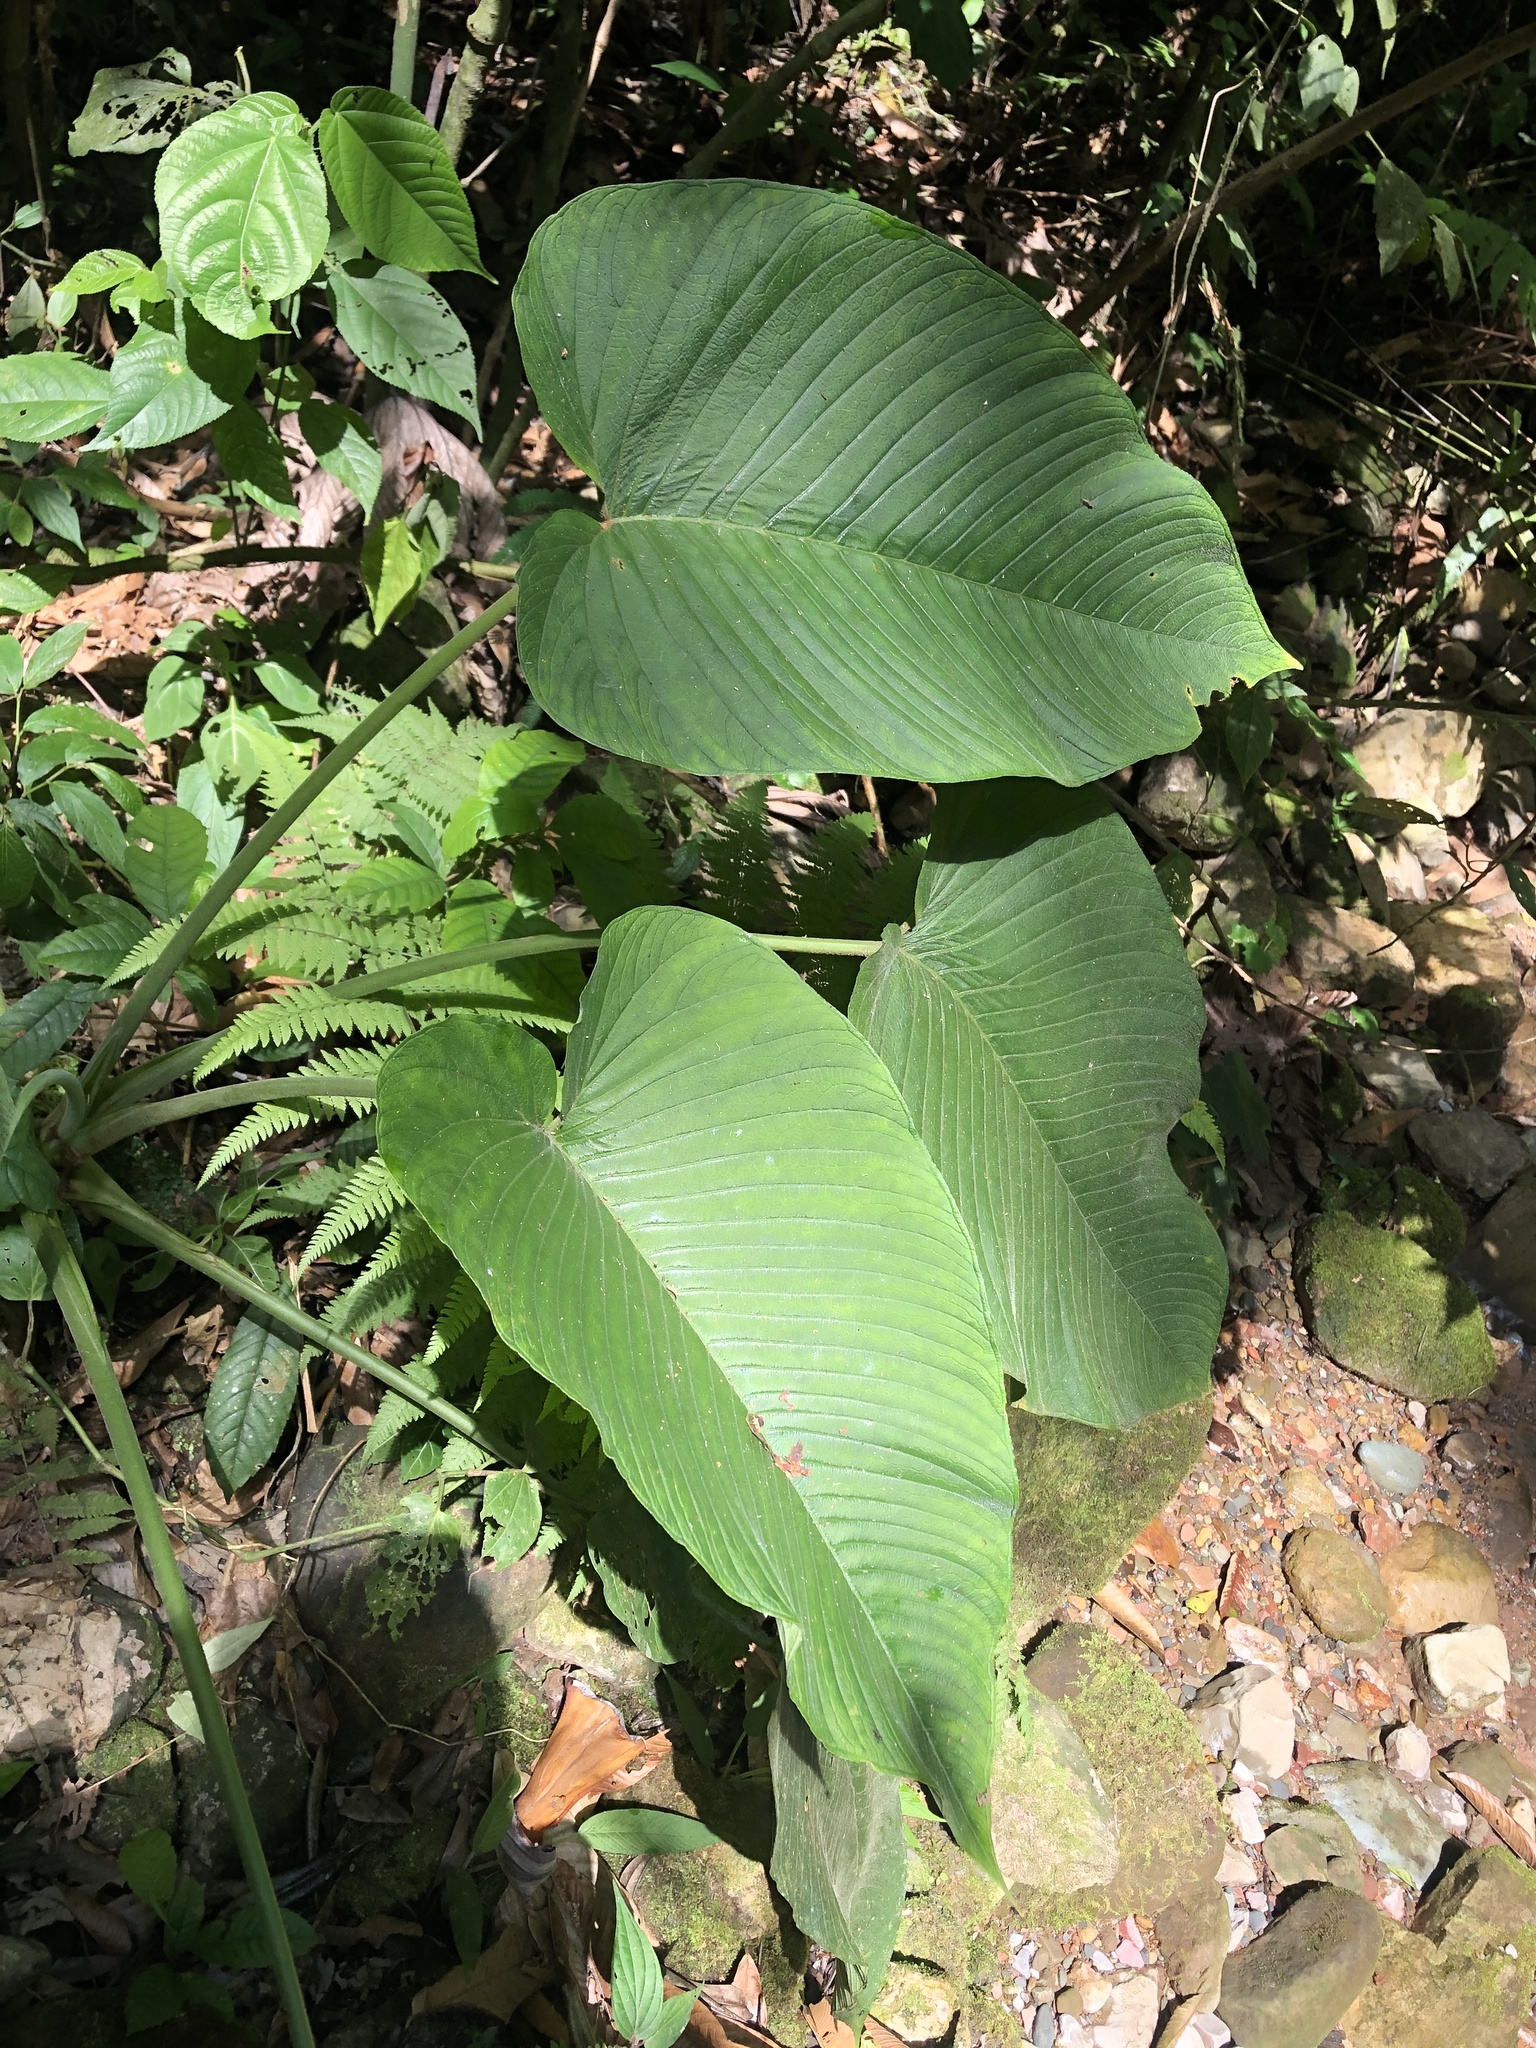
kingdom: Plantae
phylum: Tracheophyta
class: Liliopsida
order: Alismatales
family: Araceae
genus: Xanthosoma
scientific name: Xanthosoma pubescens
